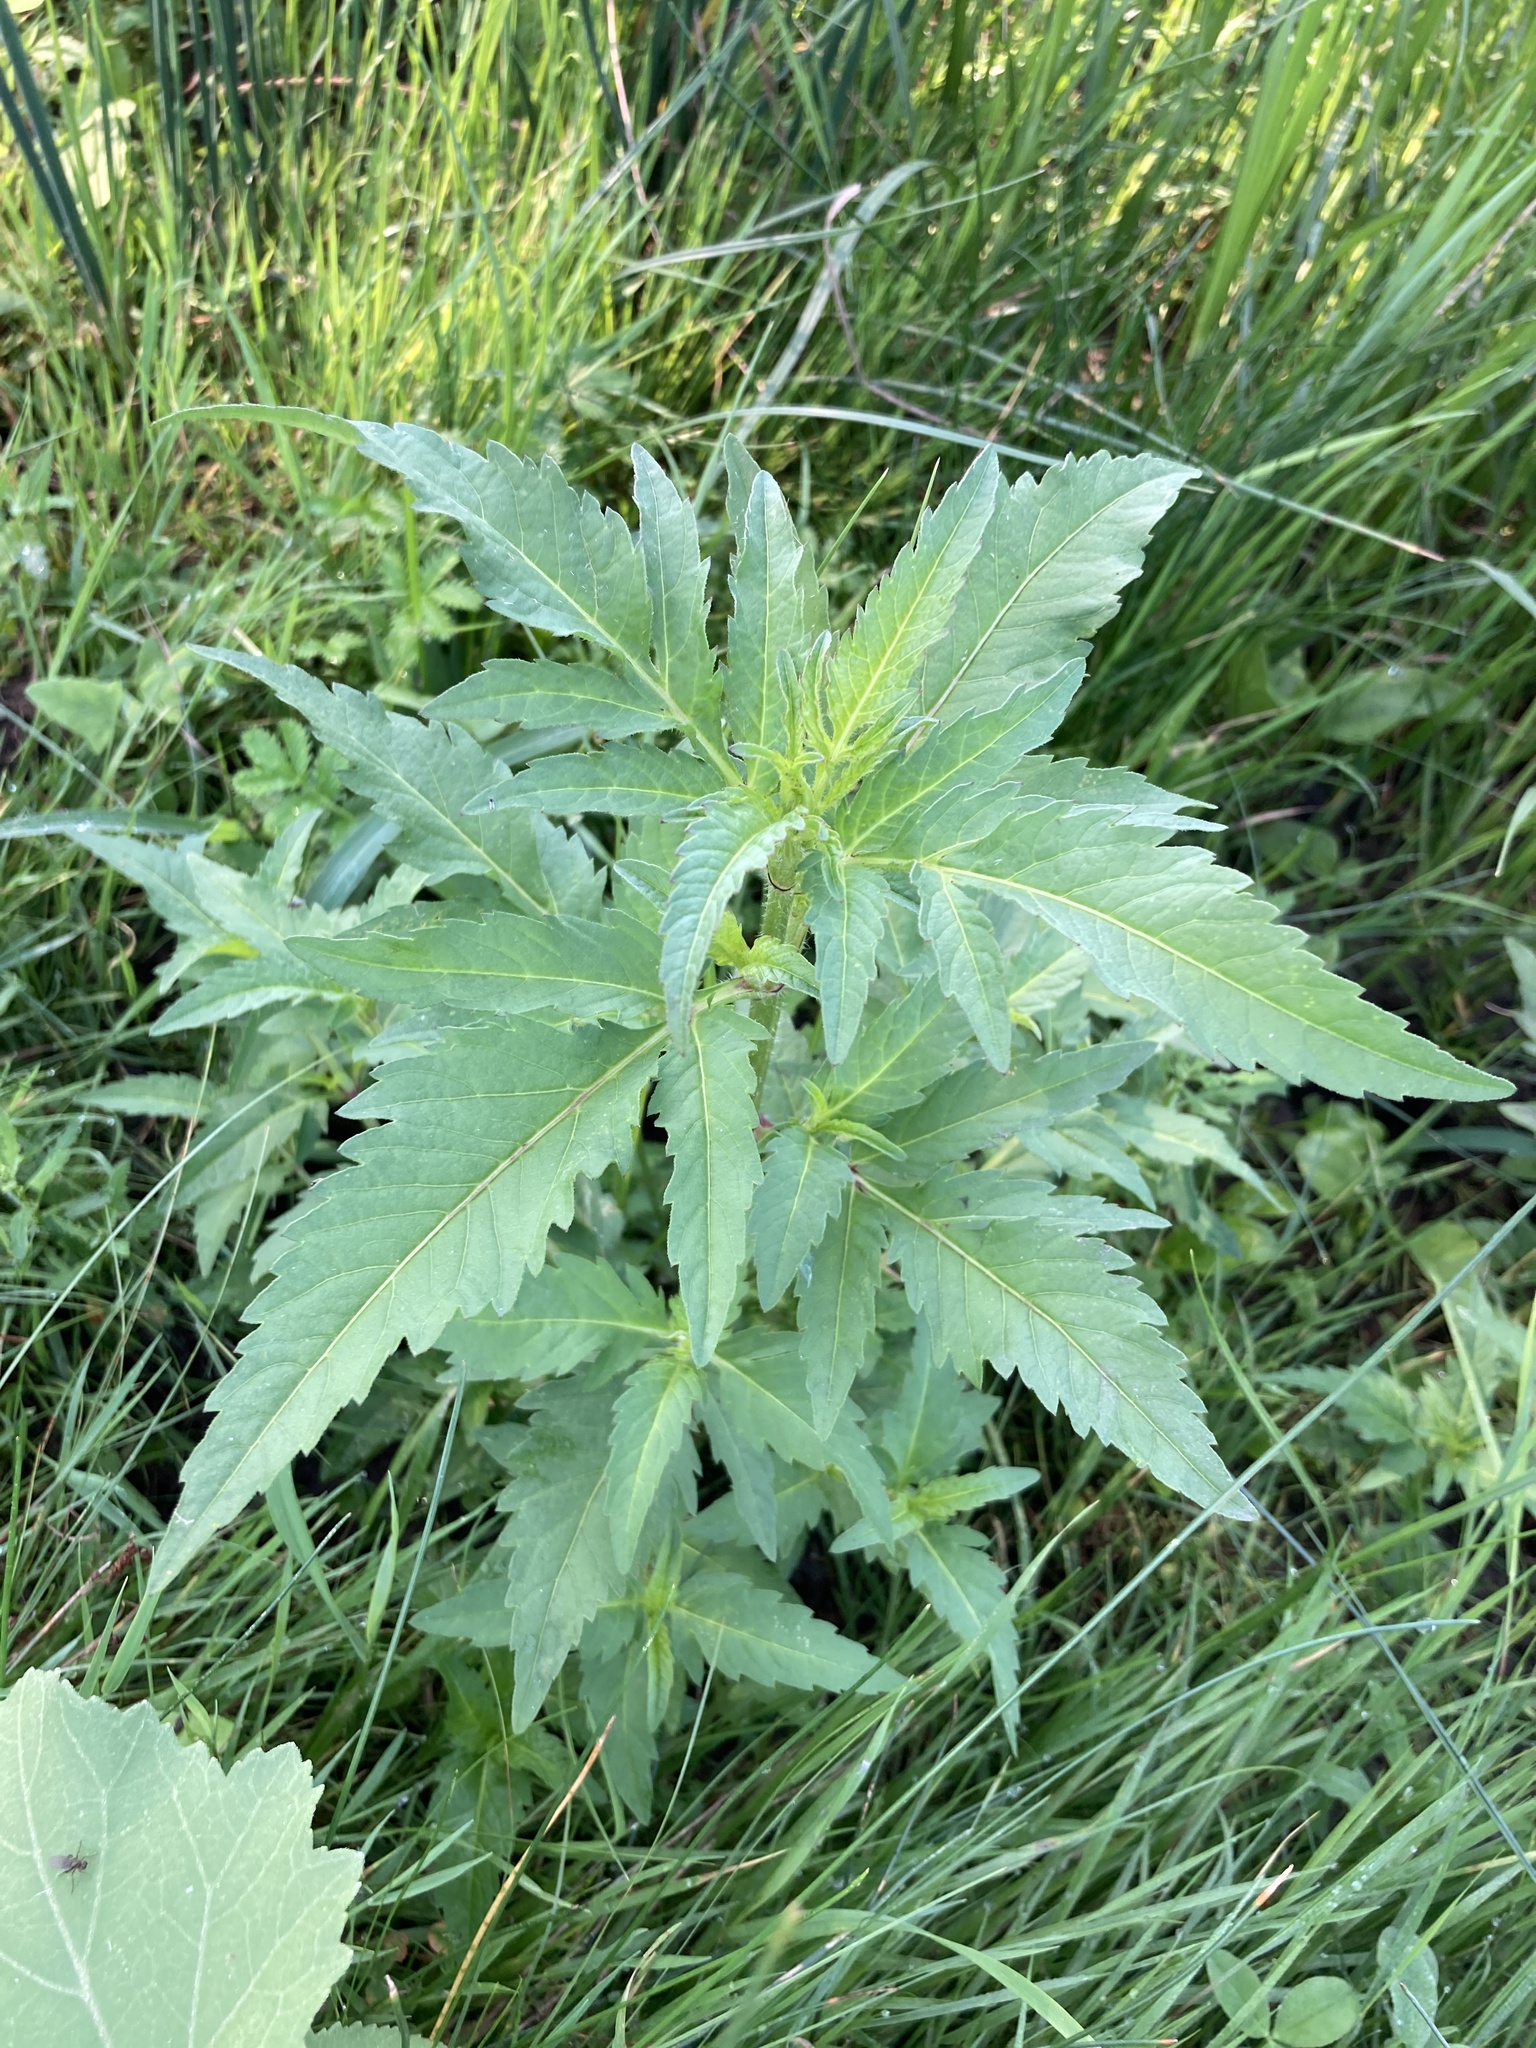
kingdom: Plantae
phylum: Tracheophyta
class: Magnoliopsida
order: Asterales
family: Asteraceae
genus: Bidens
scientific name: Bidens tripartita
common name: Trifid bur-marigold
